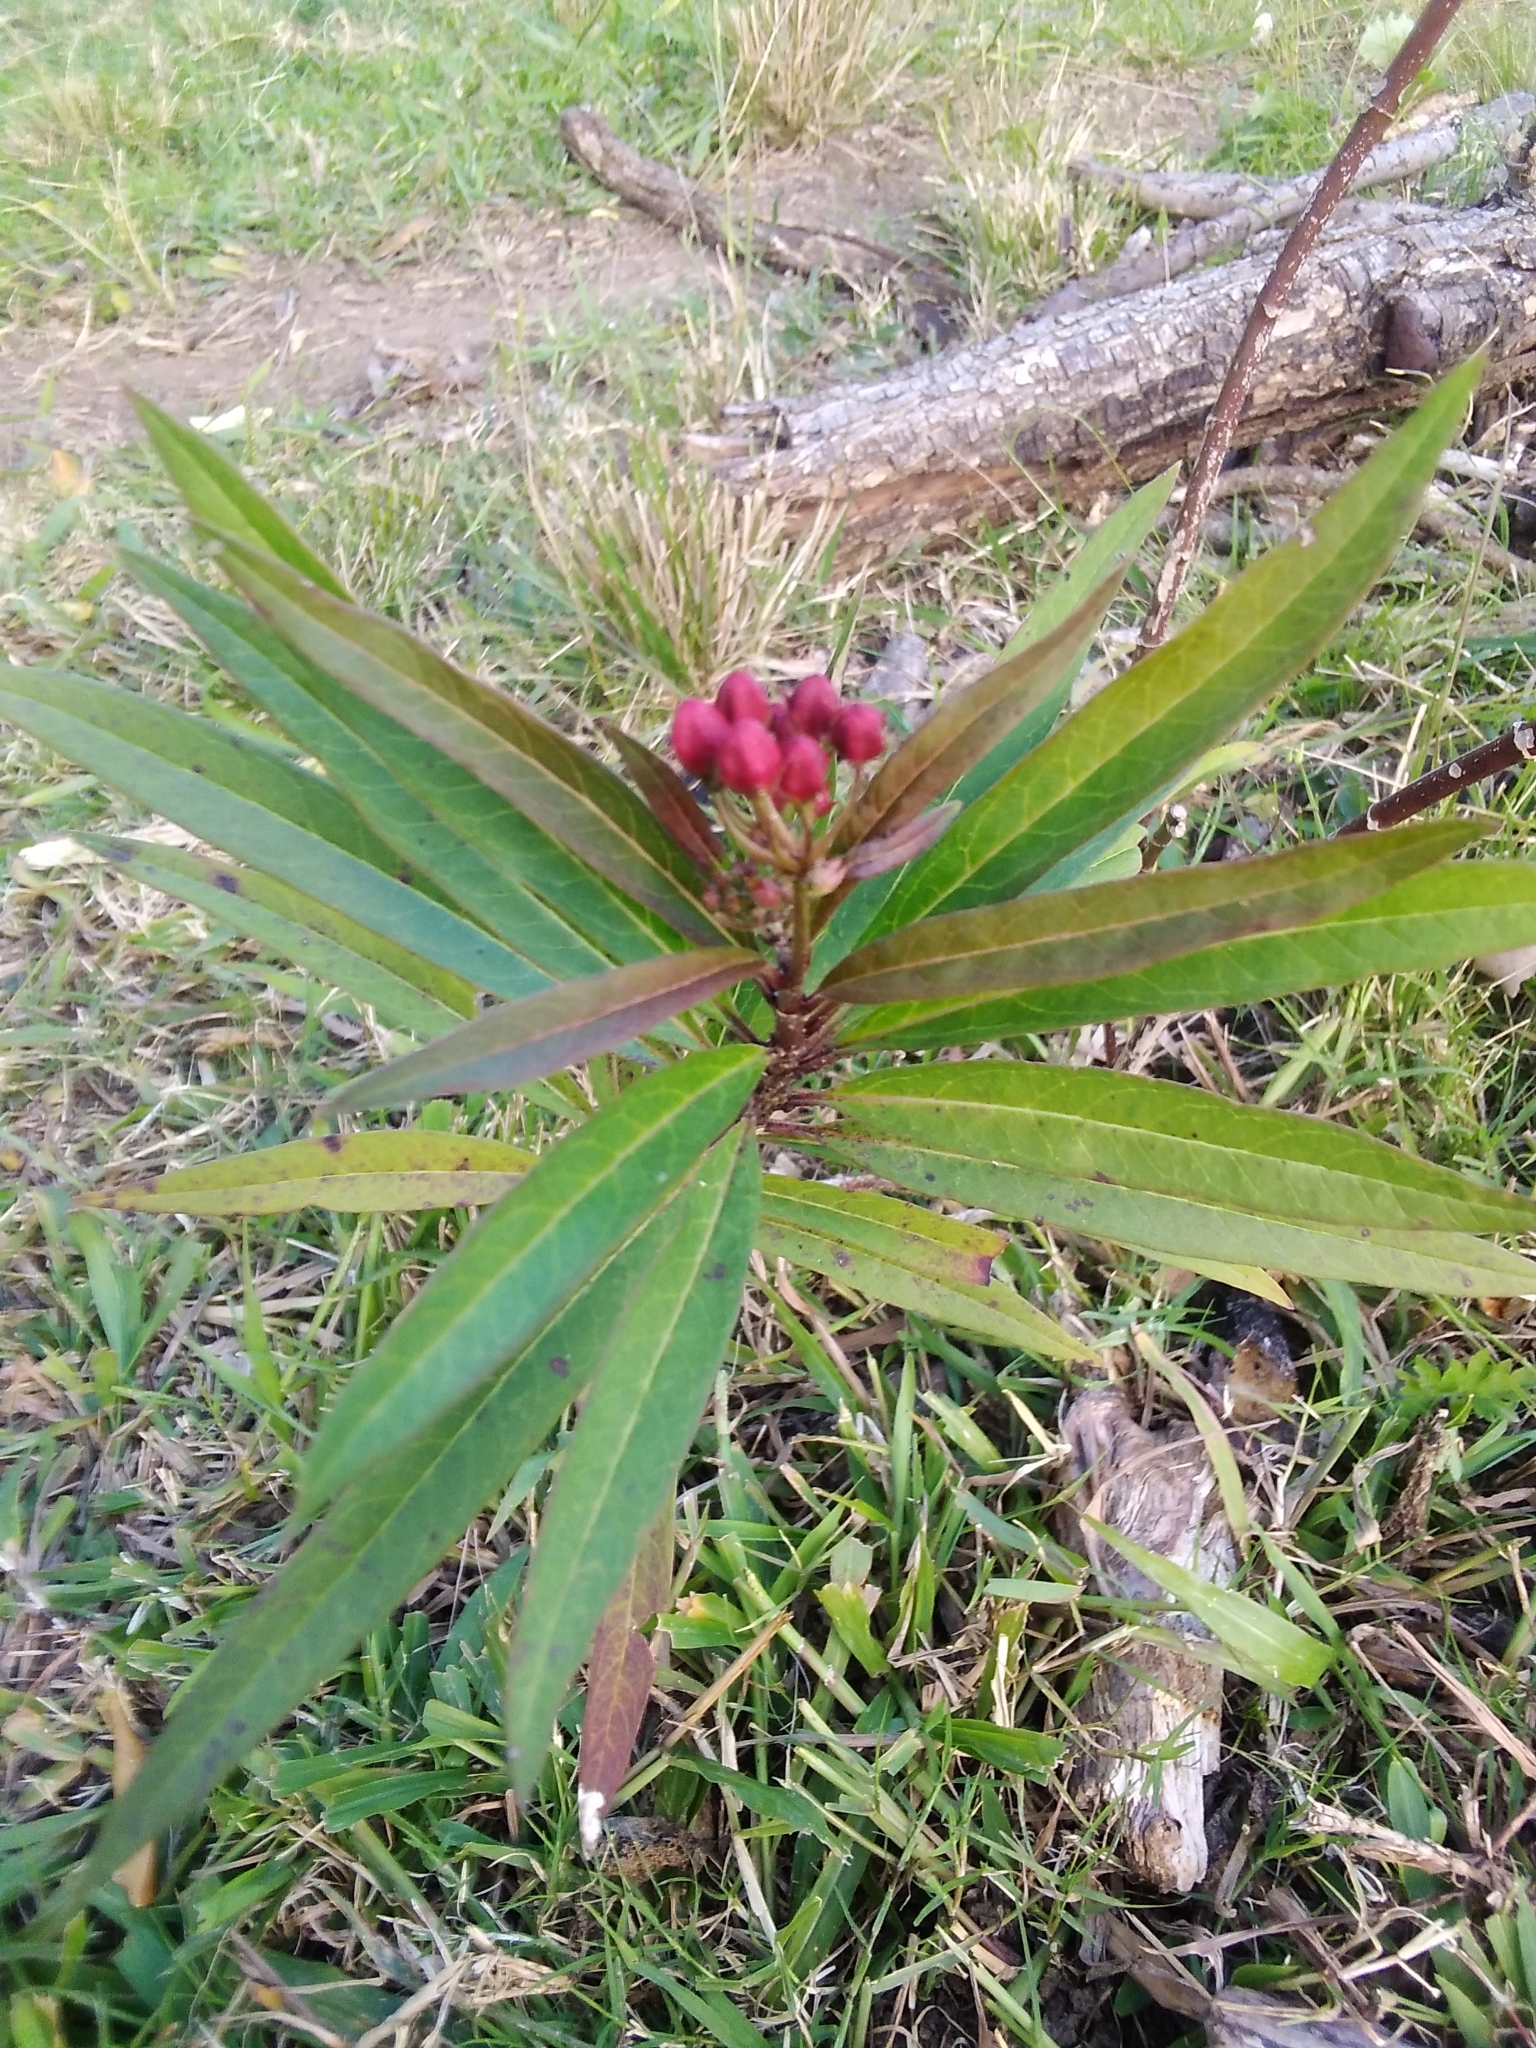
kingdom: Plantae
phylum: Tracheophyta
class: Magnoliopsida
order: Gentianales
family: Apocynaceae
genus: Asclepias
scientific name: Asclepias curassavica
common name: Bloodflower
